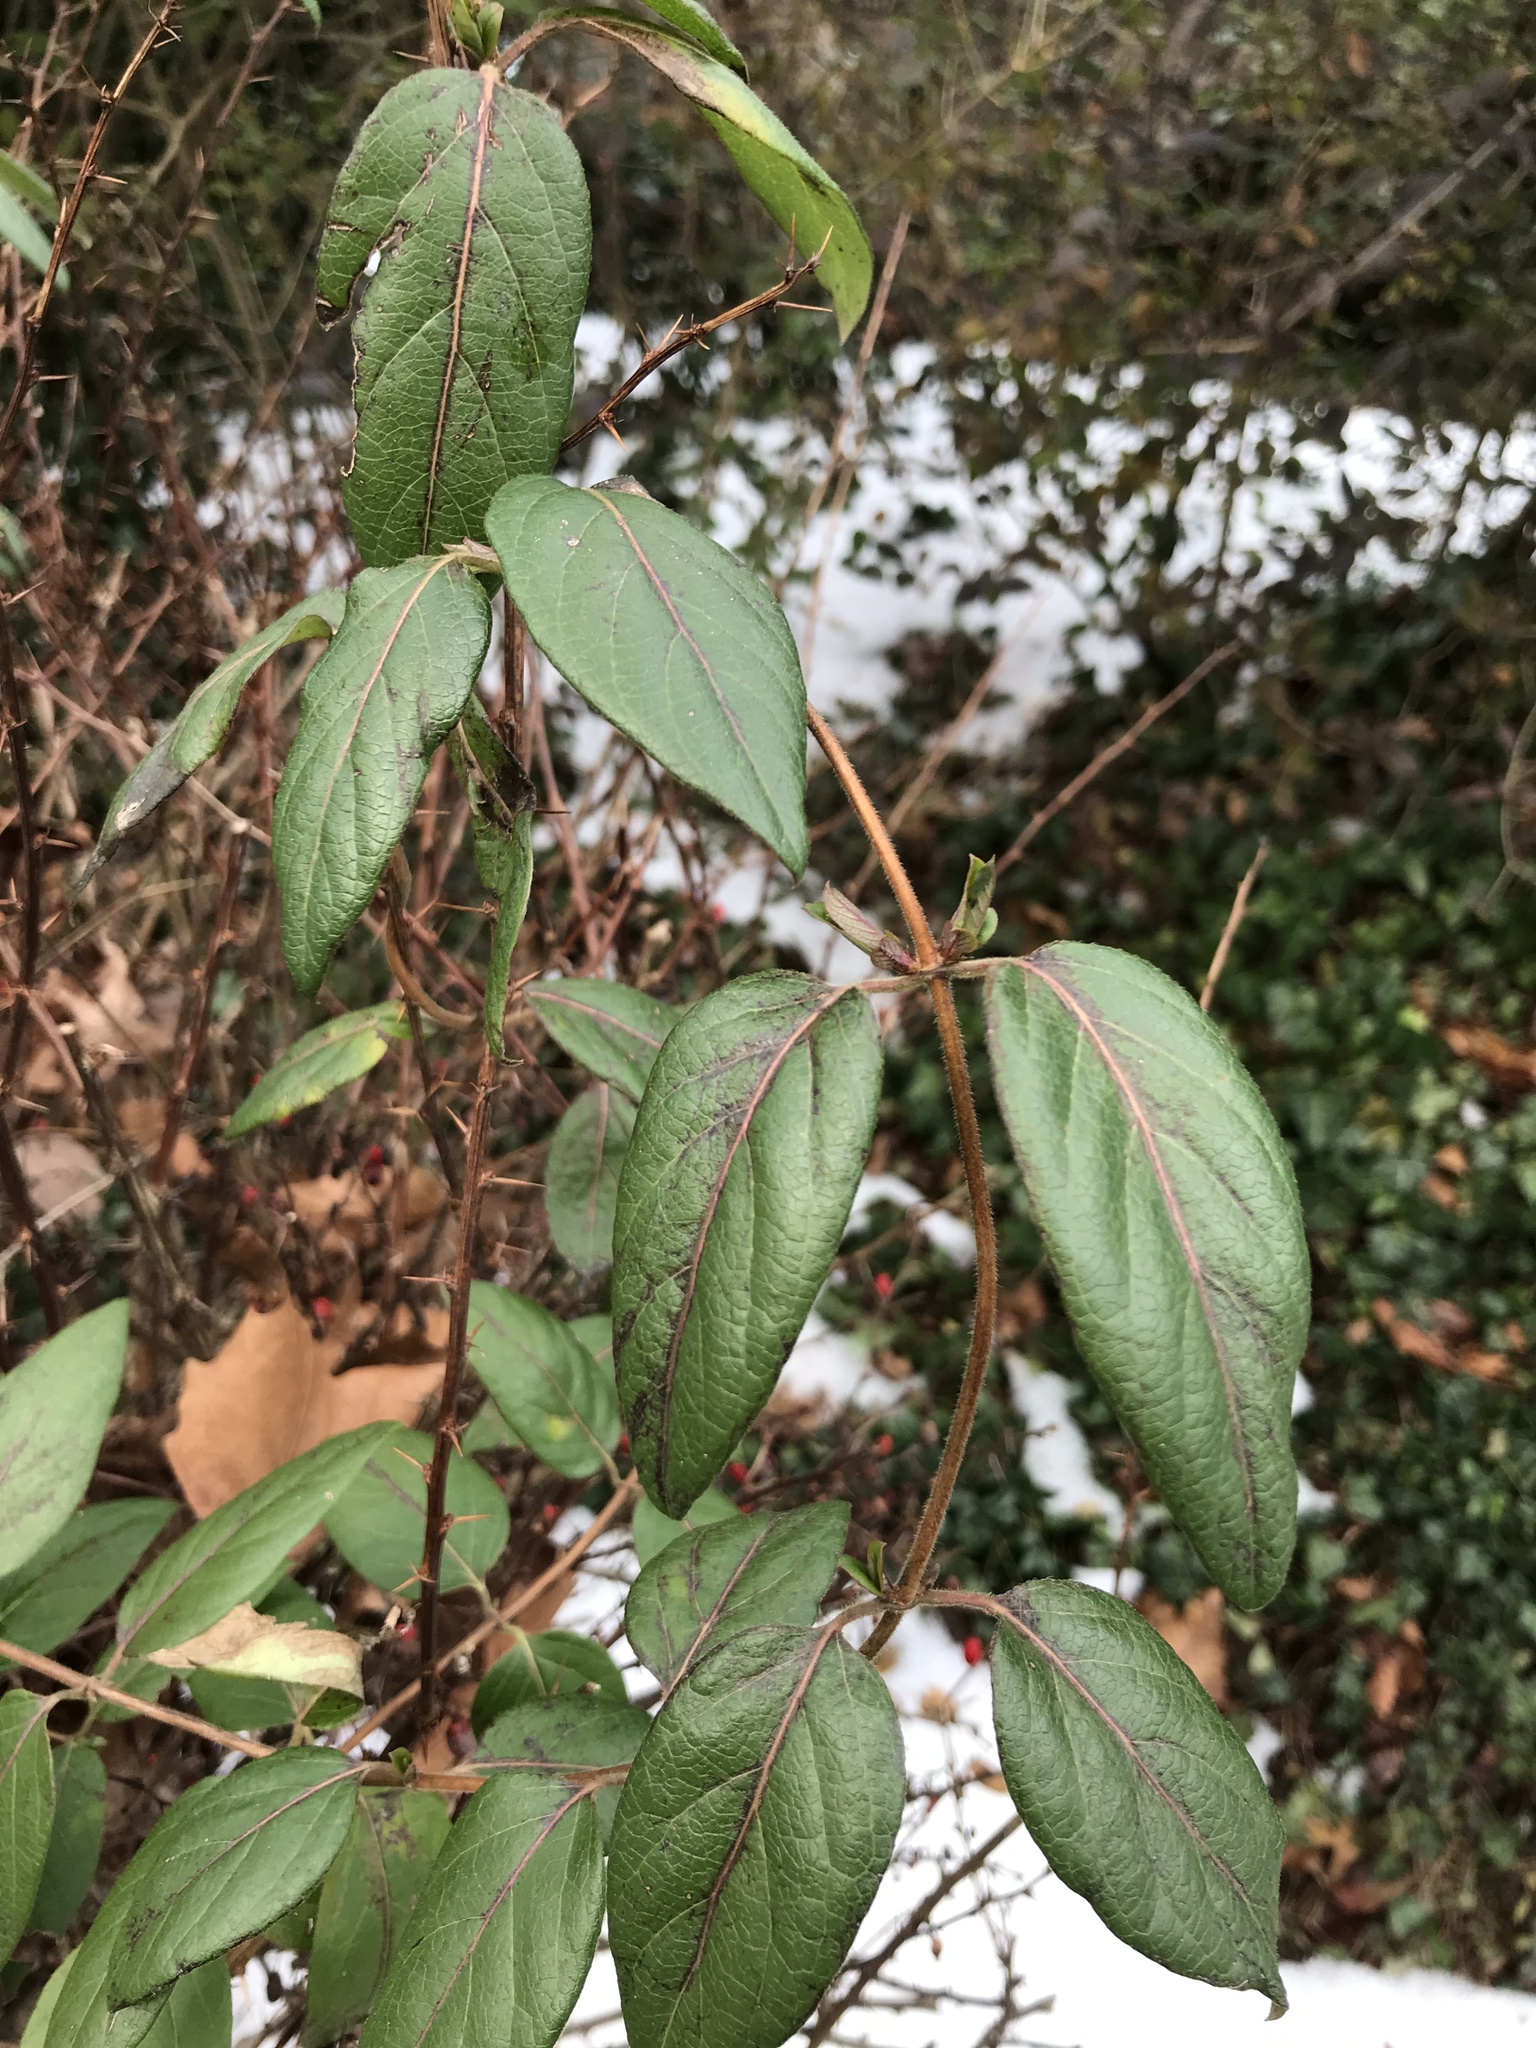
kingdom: Plantae
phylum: Tracheophyta
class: Magnoliopsida
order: Dipsacales
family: Caprifoliaceae
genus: Lonicera
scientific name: Lonicera japonica
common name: Japanese honeysuckle
